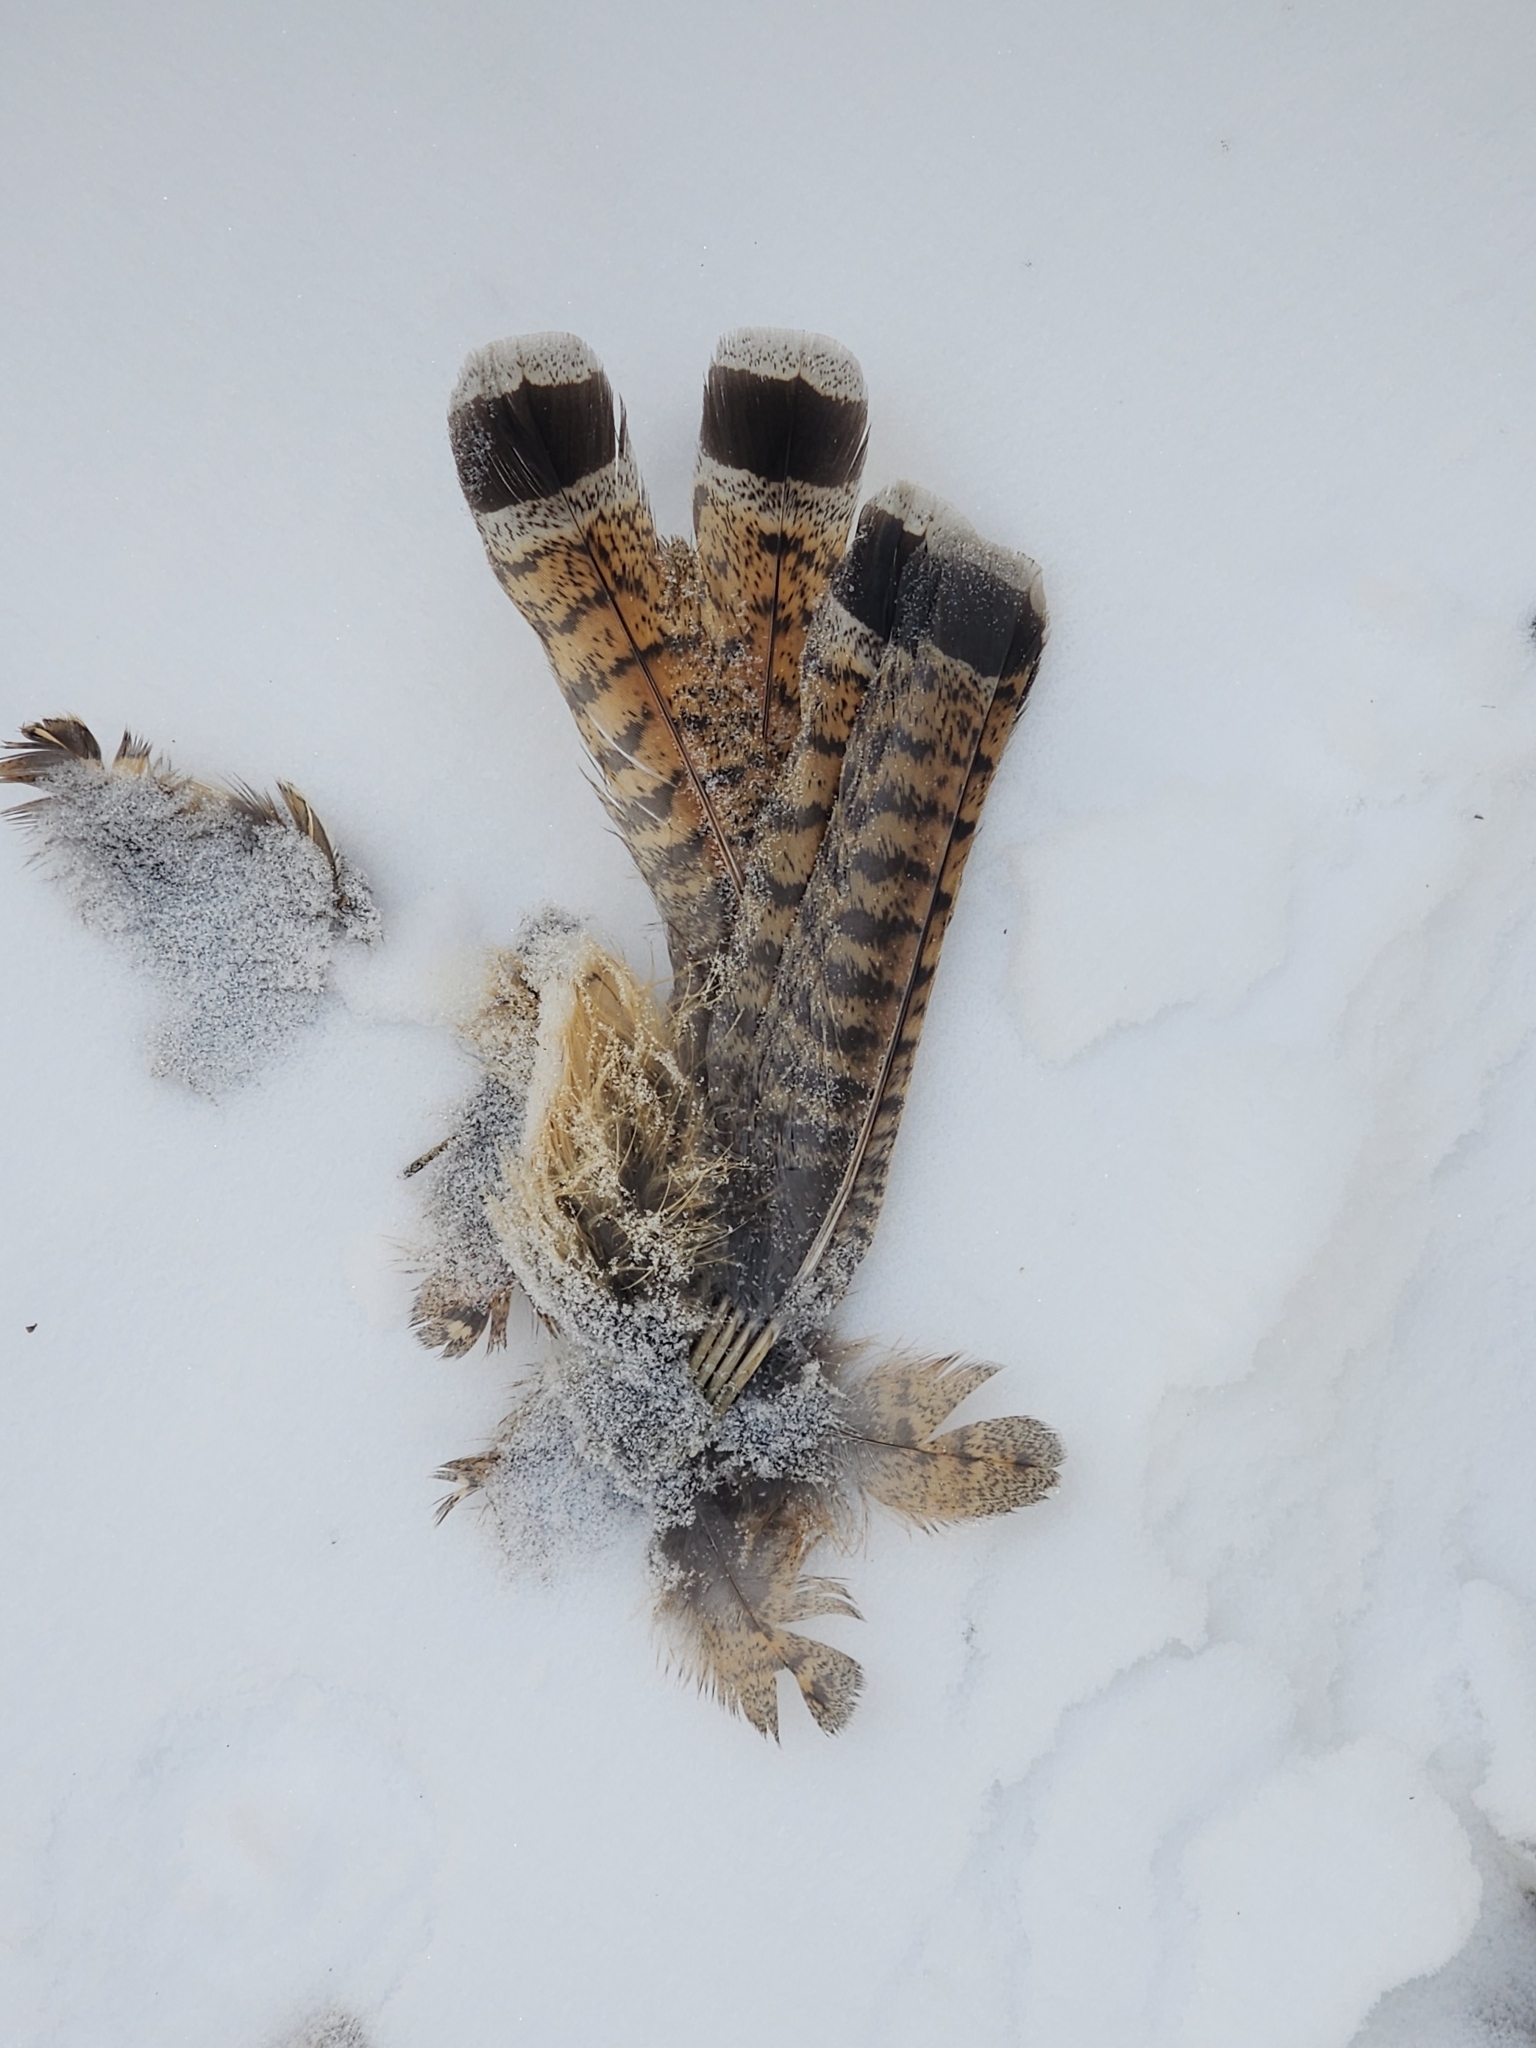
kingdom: Animalia
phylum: Chordata
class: Aves
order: Galliformes
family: Phasianidae
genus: Bonasa
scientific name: Bonasa umbellus
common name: Ruffed grouse
